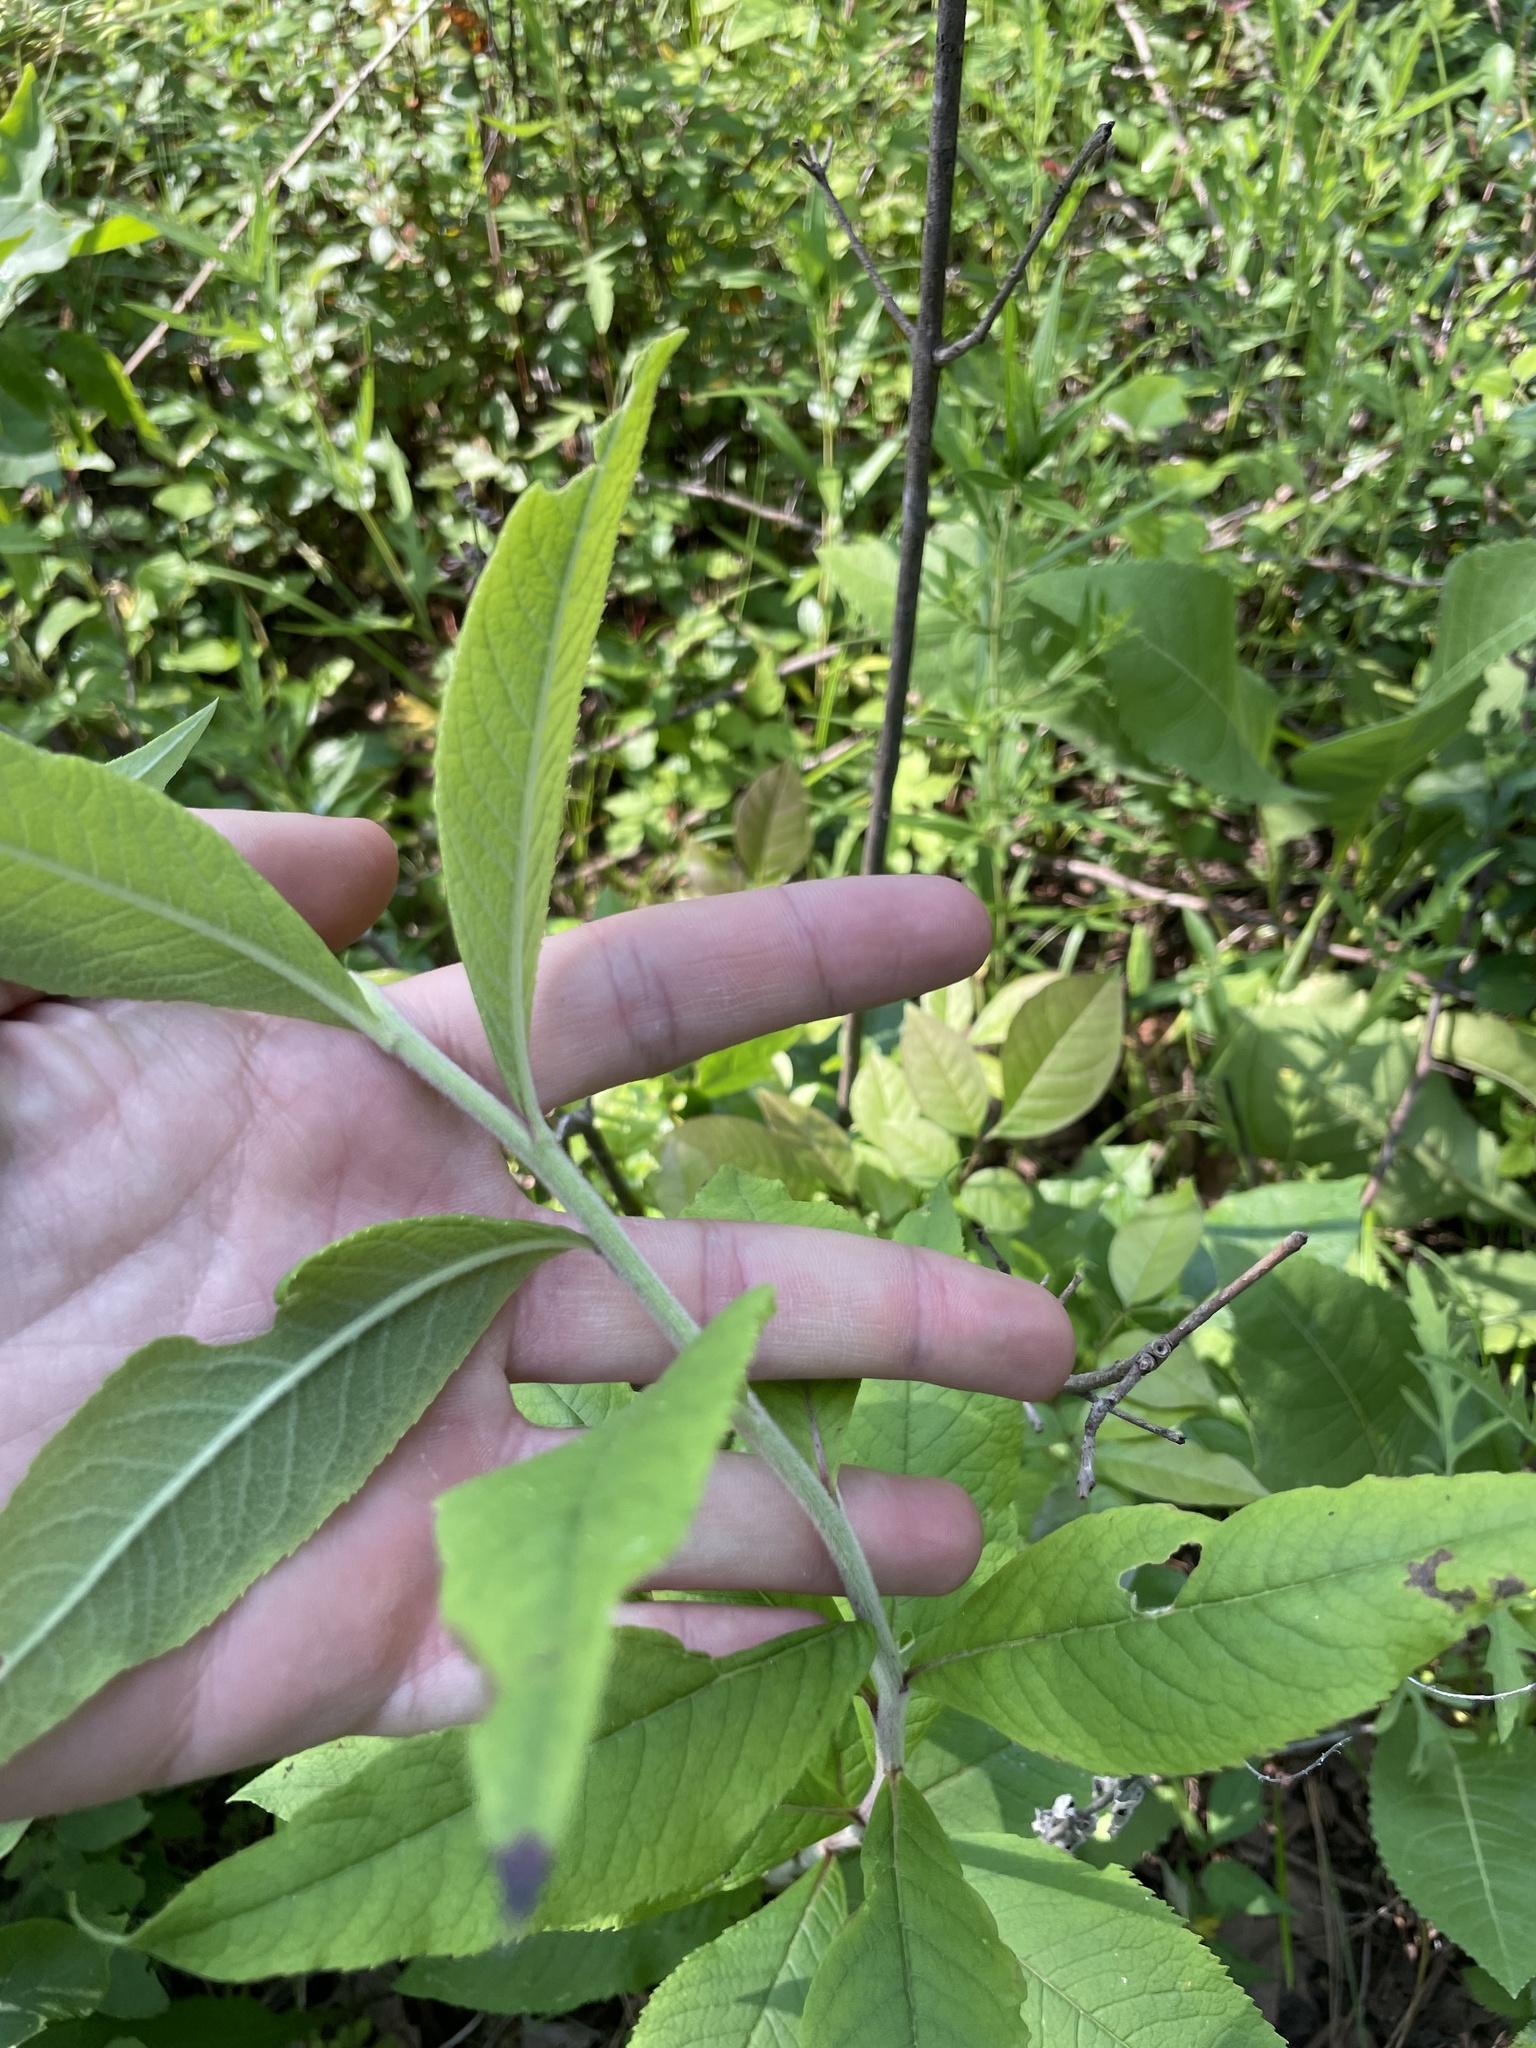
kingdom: Plantae
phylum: Tracheophyta
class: Magnoliopsida
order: Asterales
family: Asteraceae
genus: Vernonia
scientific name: Vernonia missurica
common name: Missouri ironweed
